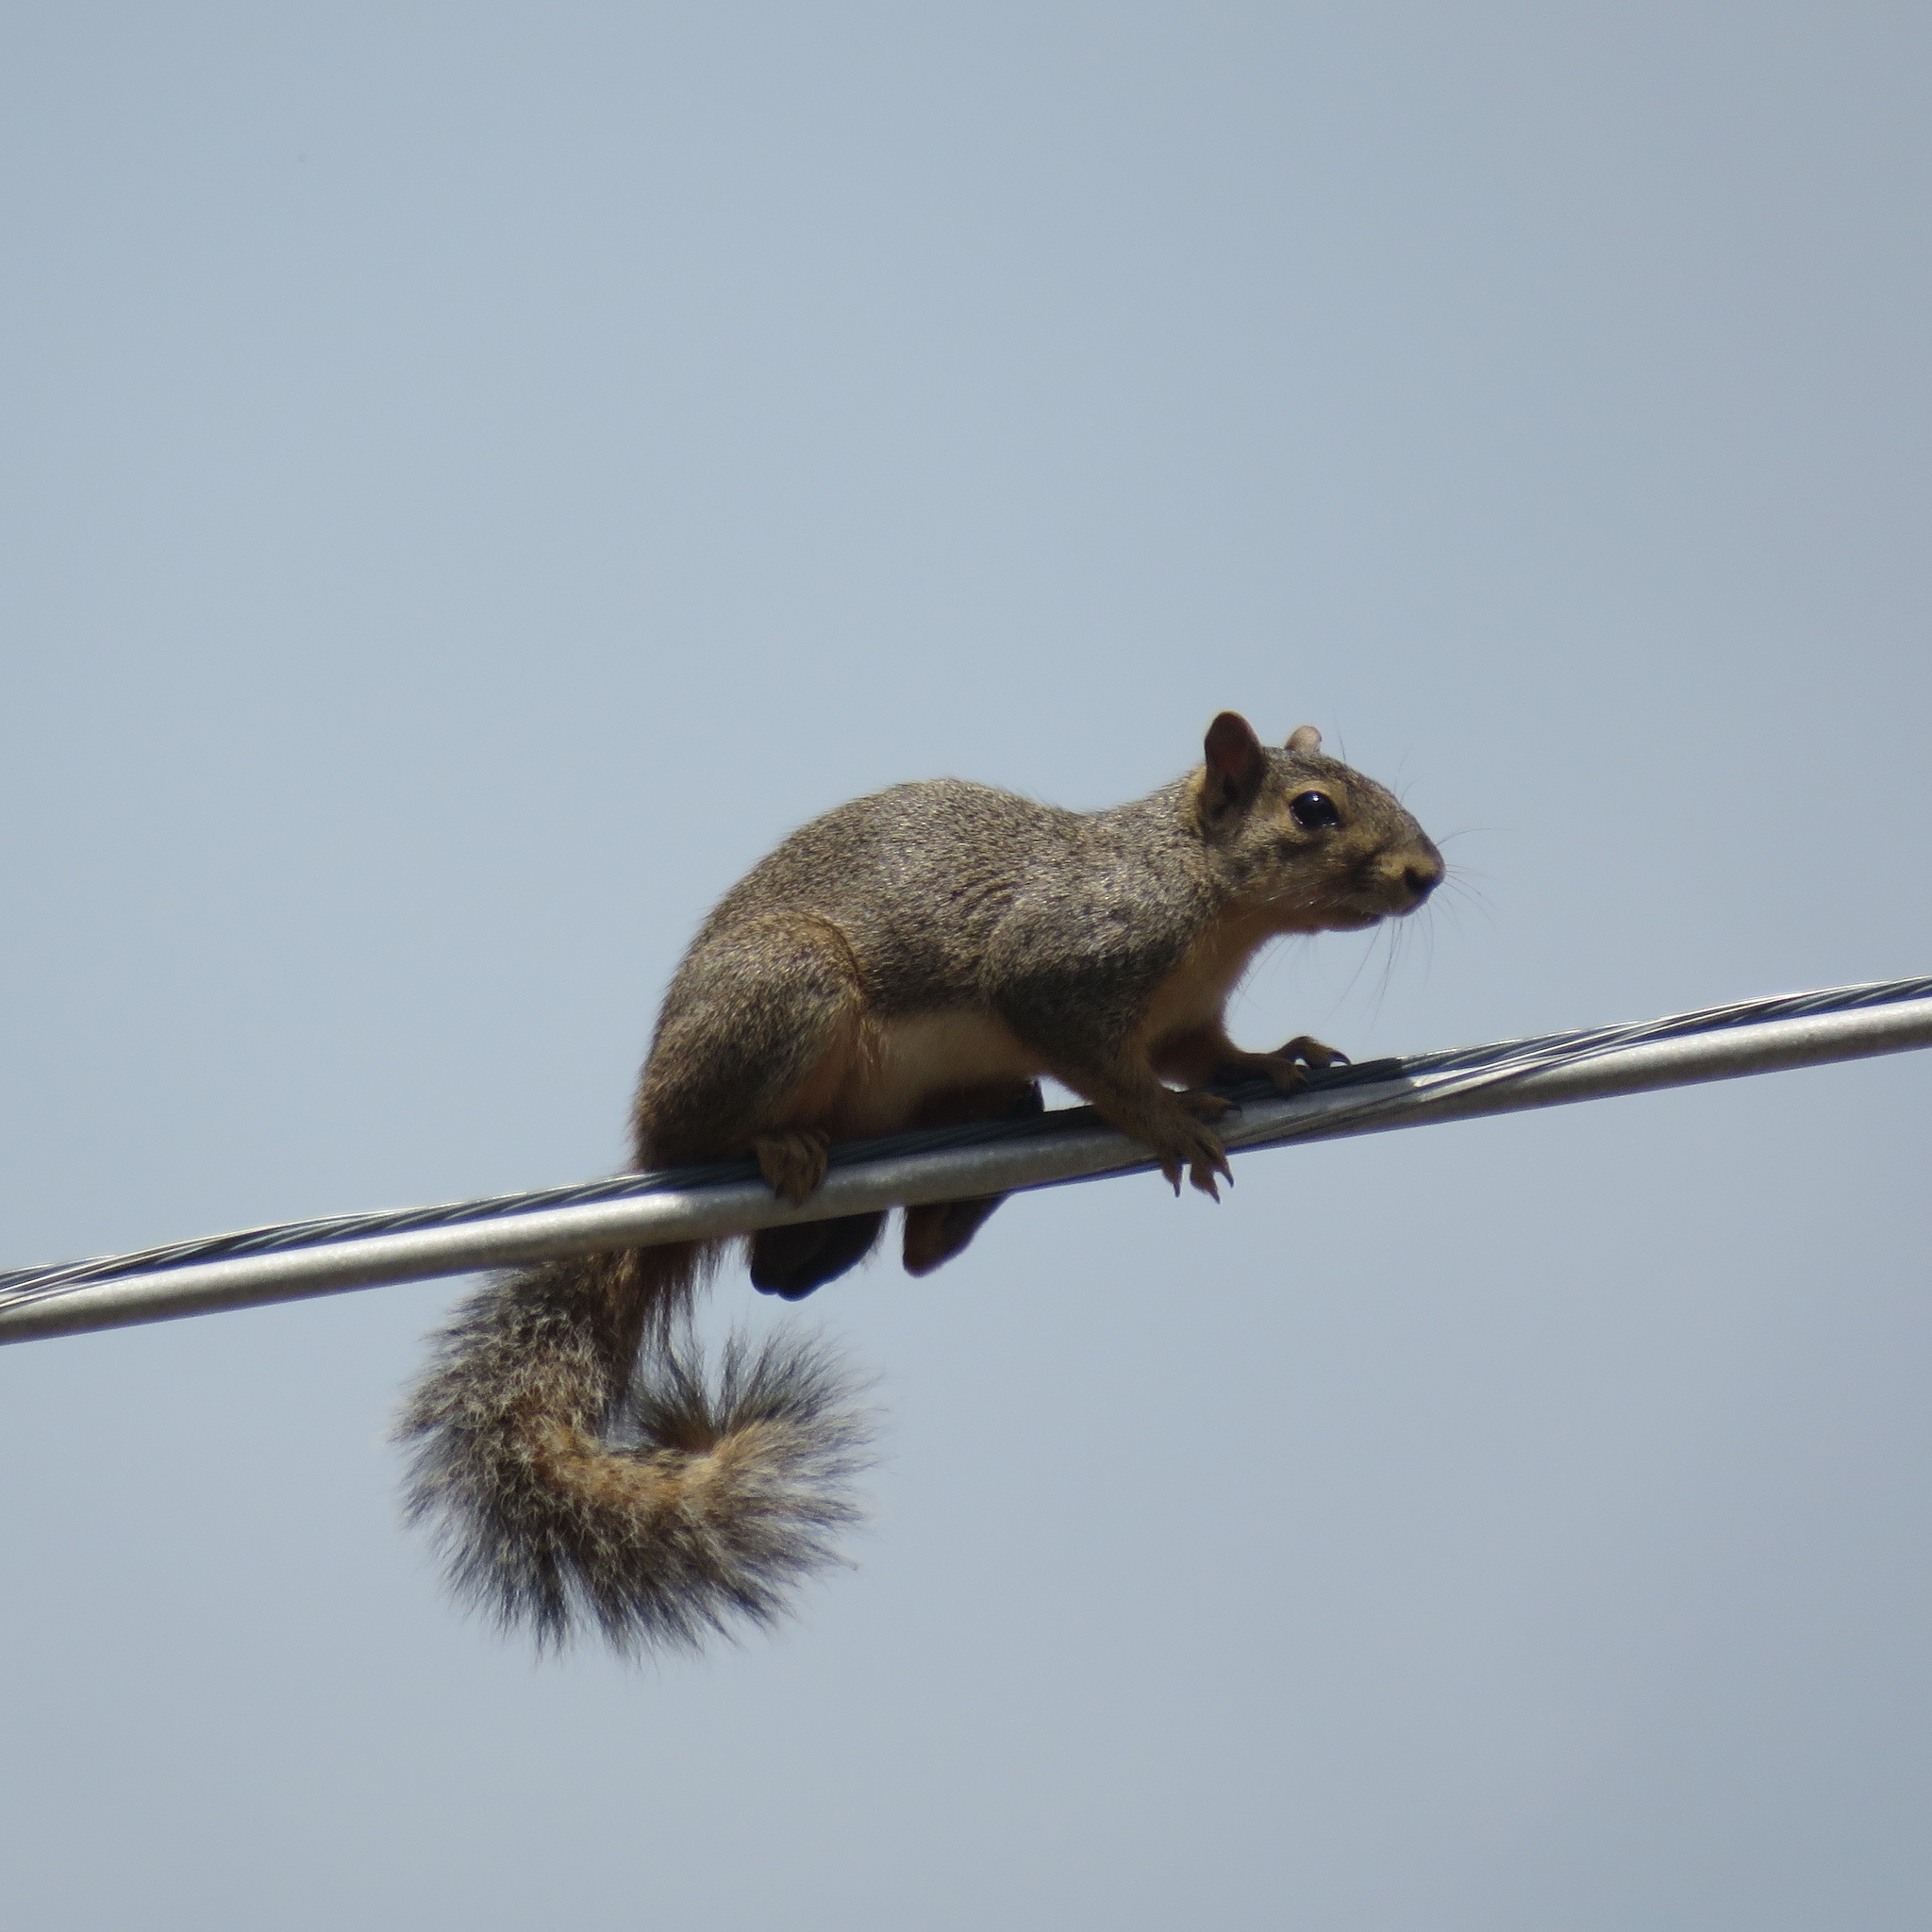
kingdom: Animalia
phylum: Chordata
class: Mammalia
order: Rodentia
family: Sciuridae
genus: Sciurus
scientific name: Sciurus niger
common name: Fox squirrel
